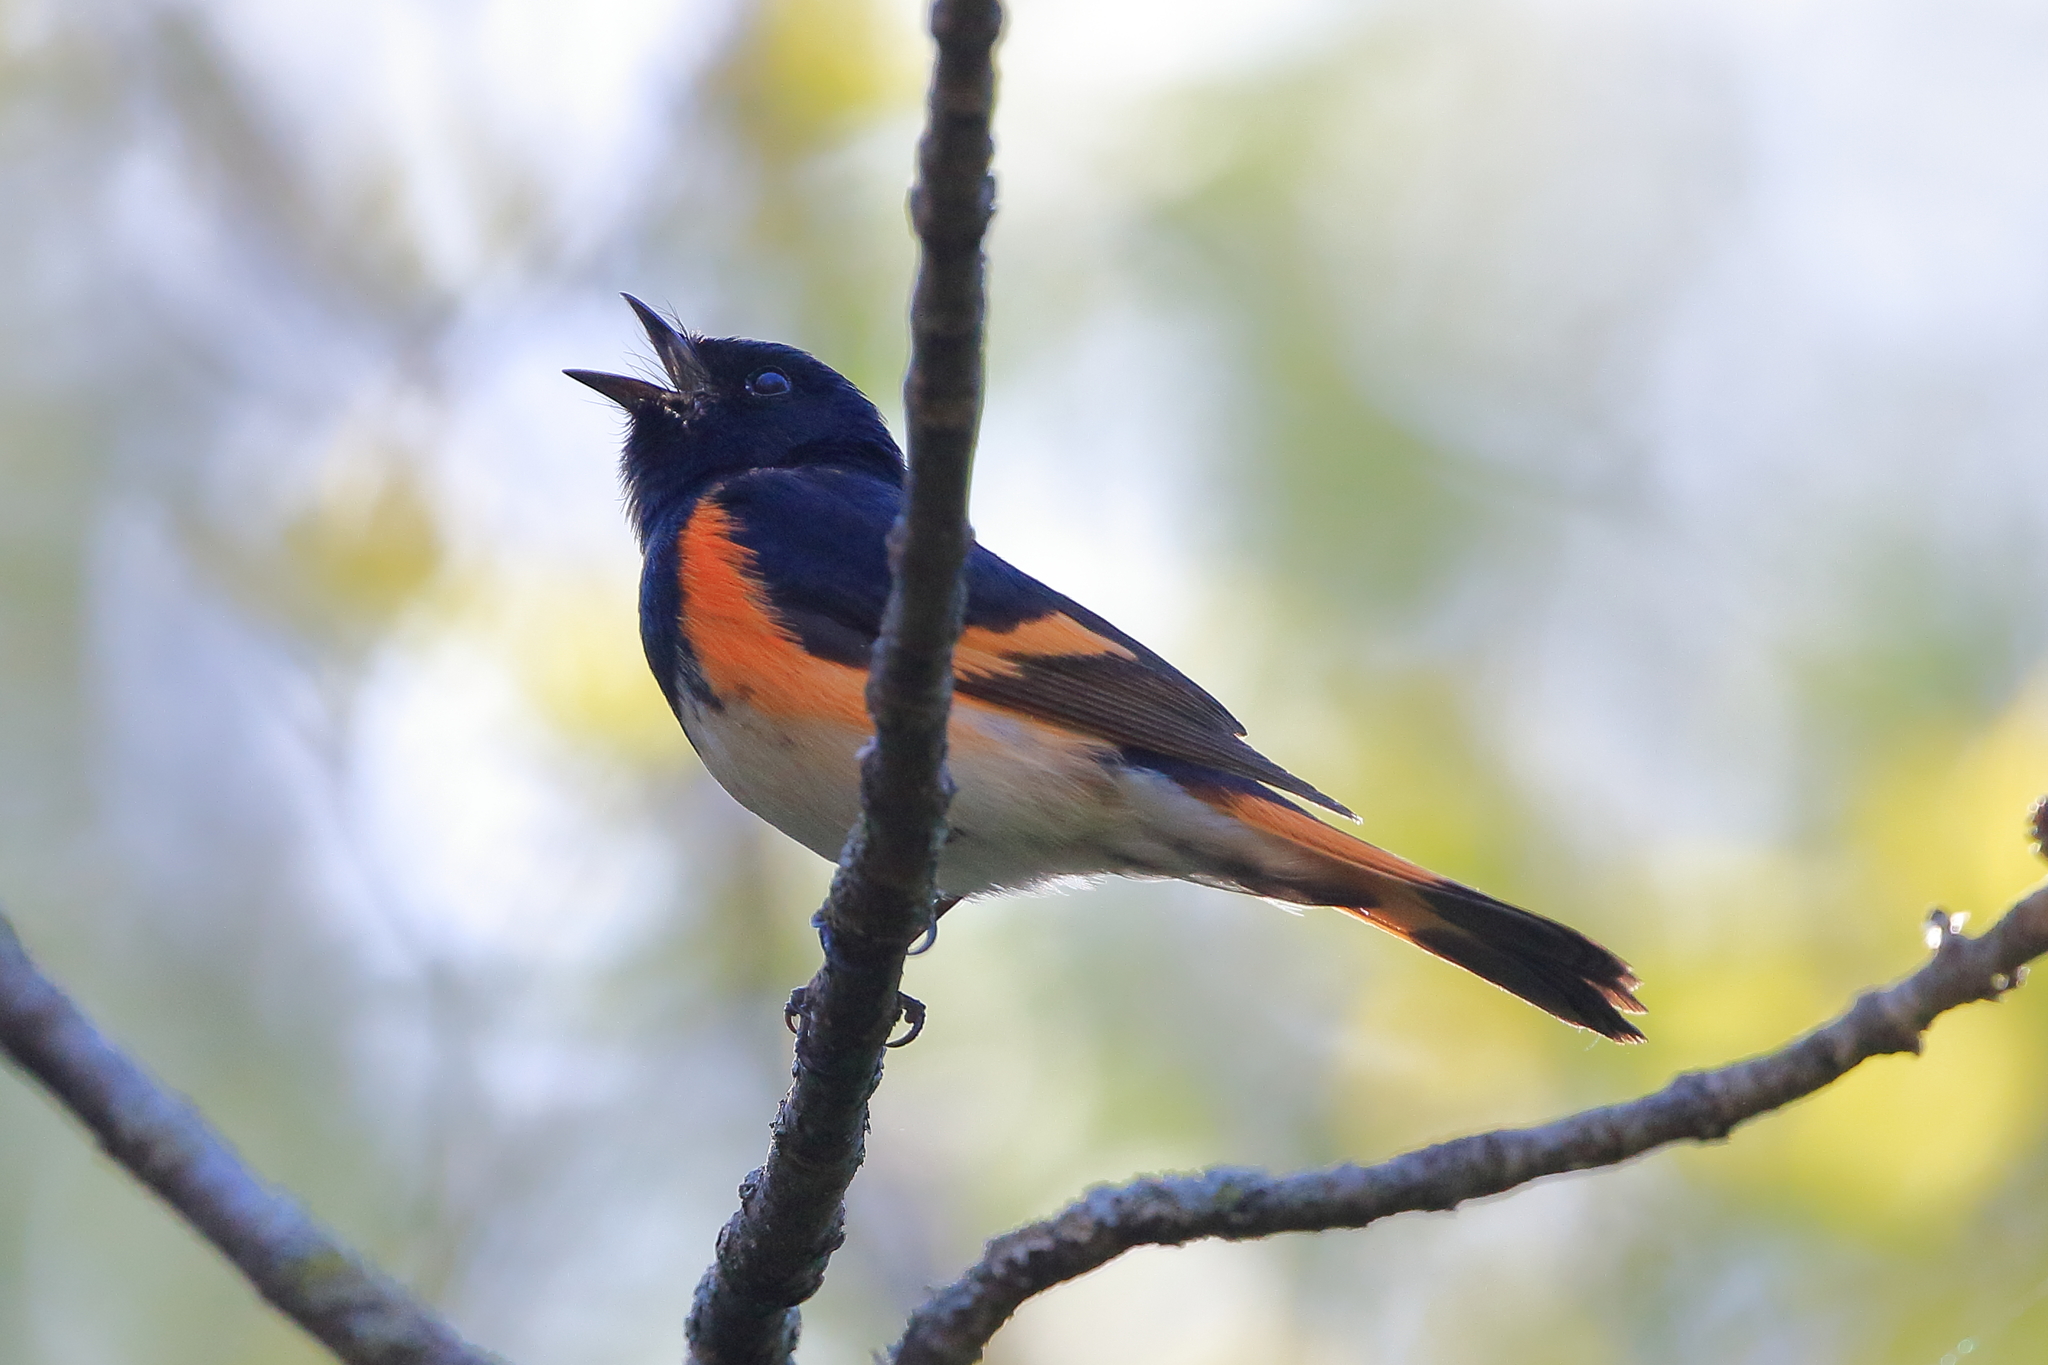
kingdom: Animalia
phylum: Chordata
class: Aves
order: Passeriformes
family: Parulidae
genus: Setophaga
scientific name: Setophaga ruticilla
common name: American redstart
